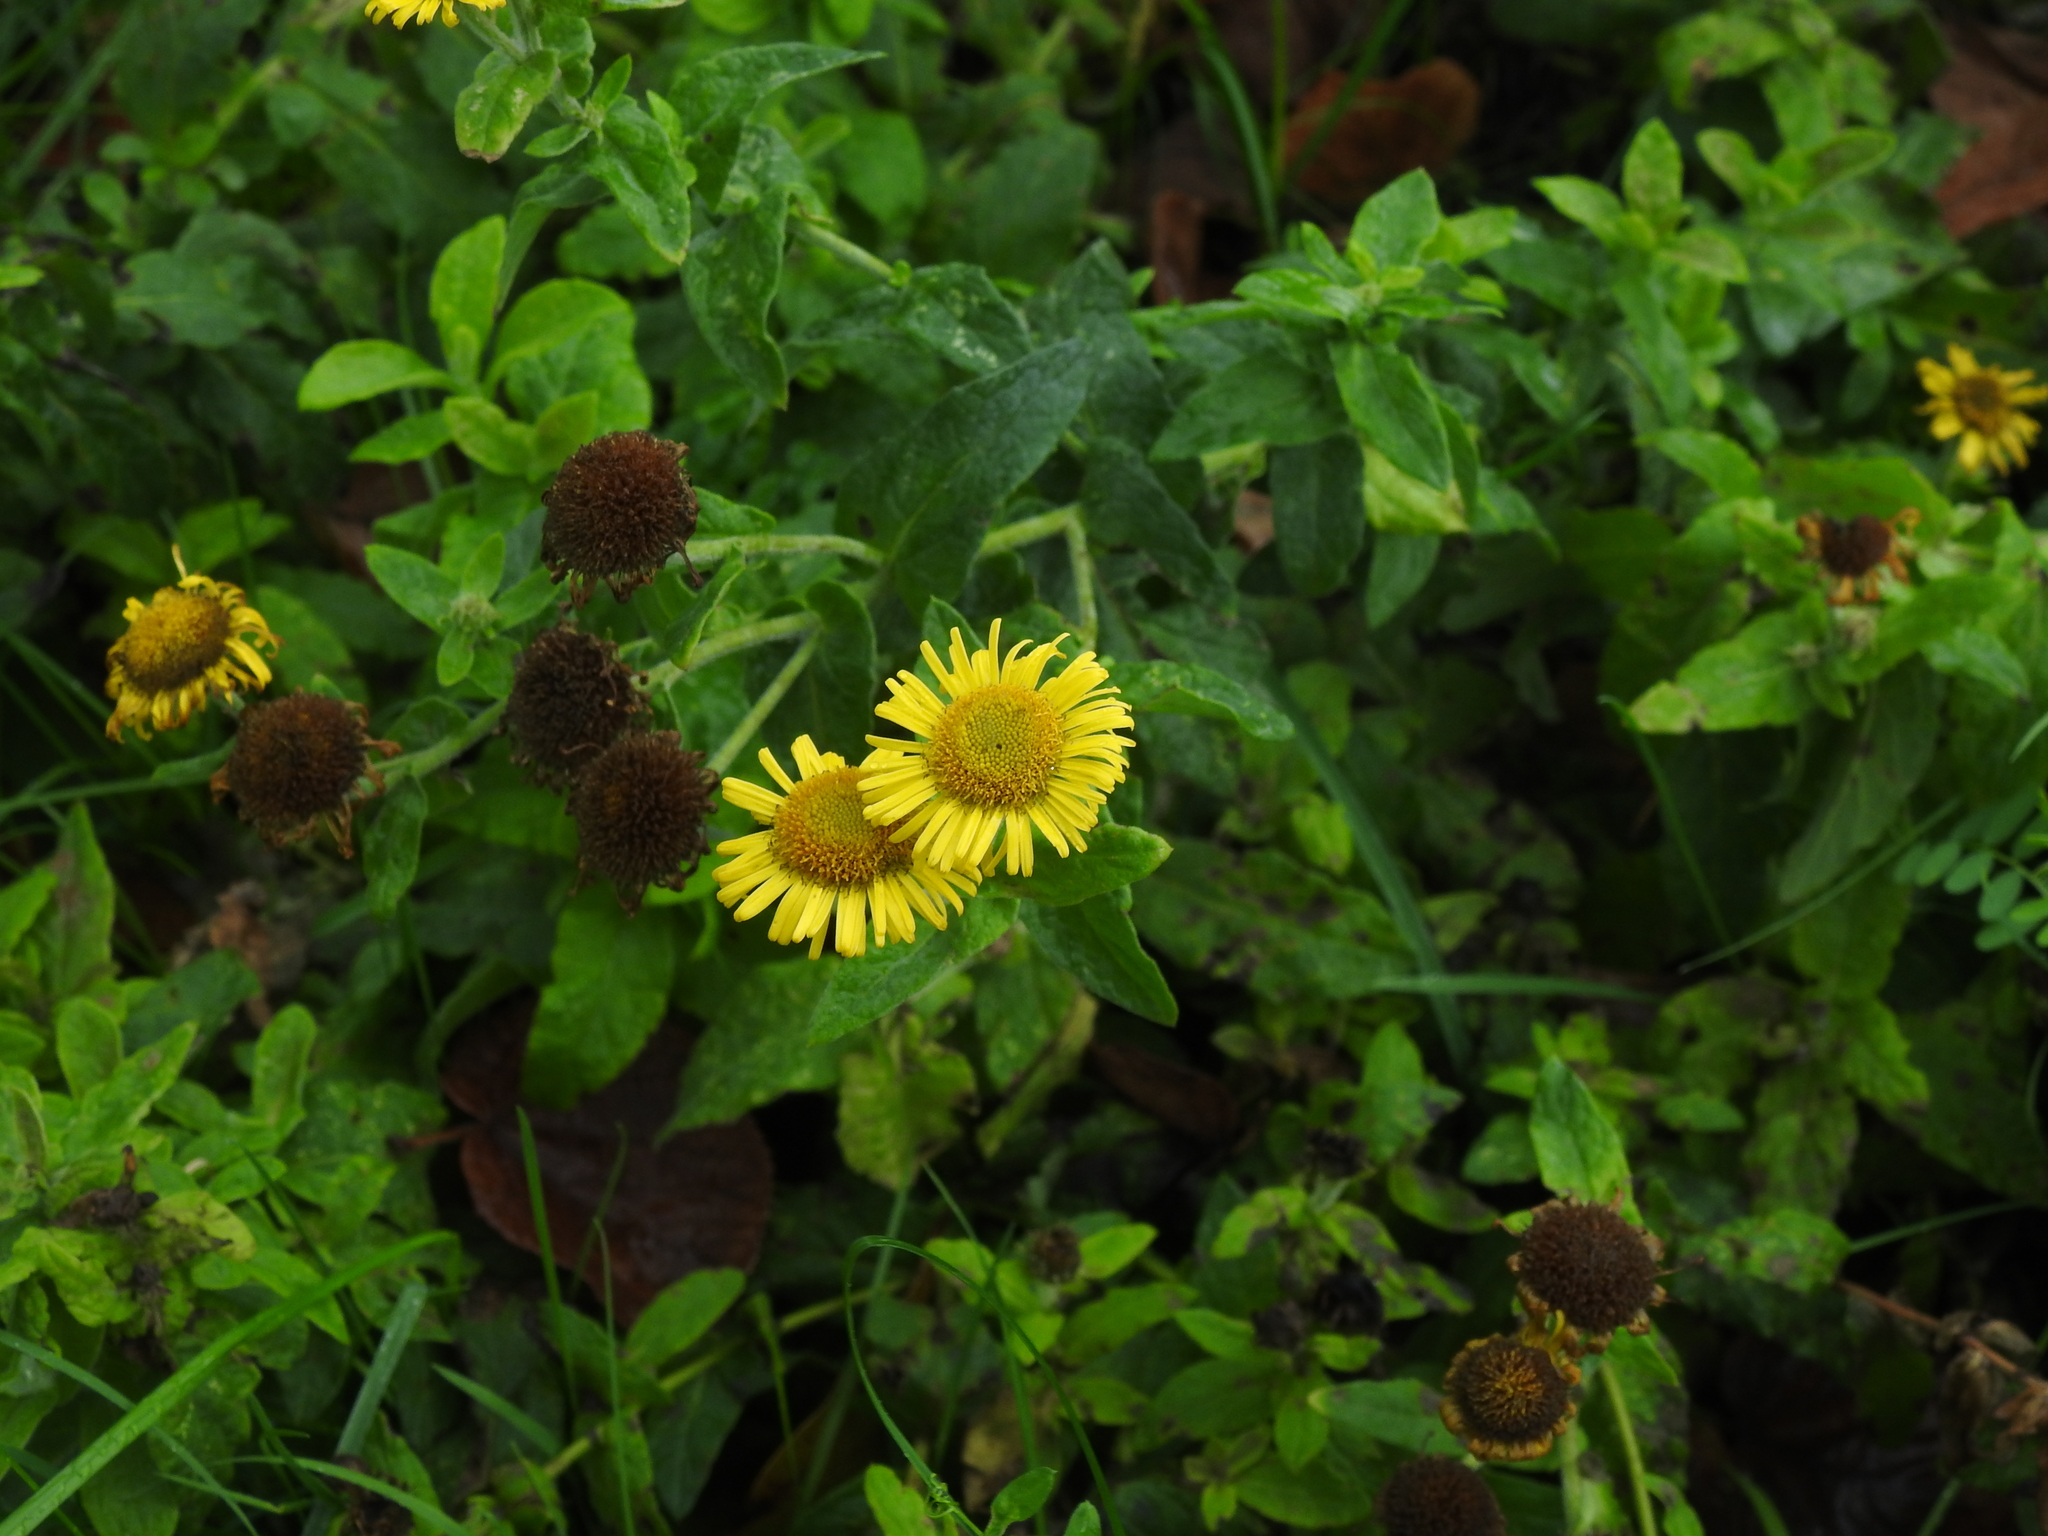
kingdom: Plantae
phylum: Tracheophyta
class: Magnoliopsida
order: Asterales
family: Asteraceae
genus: Pulicaria
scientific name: Pulicaria dysenterica
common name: Common fleabane
